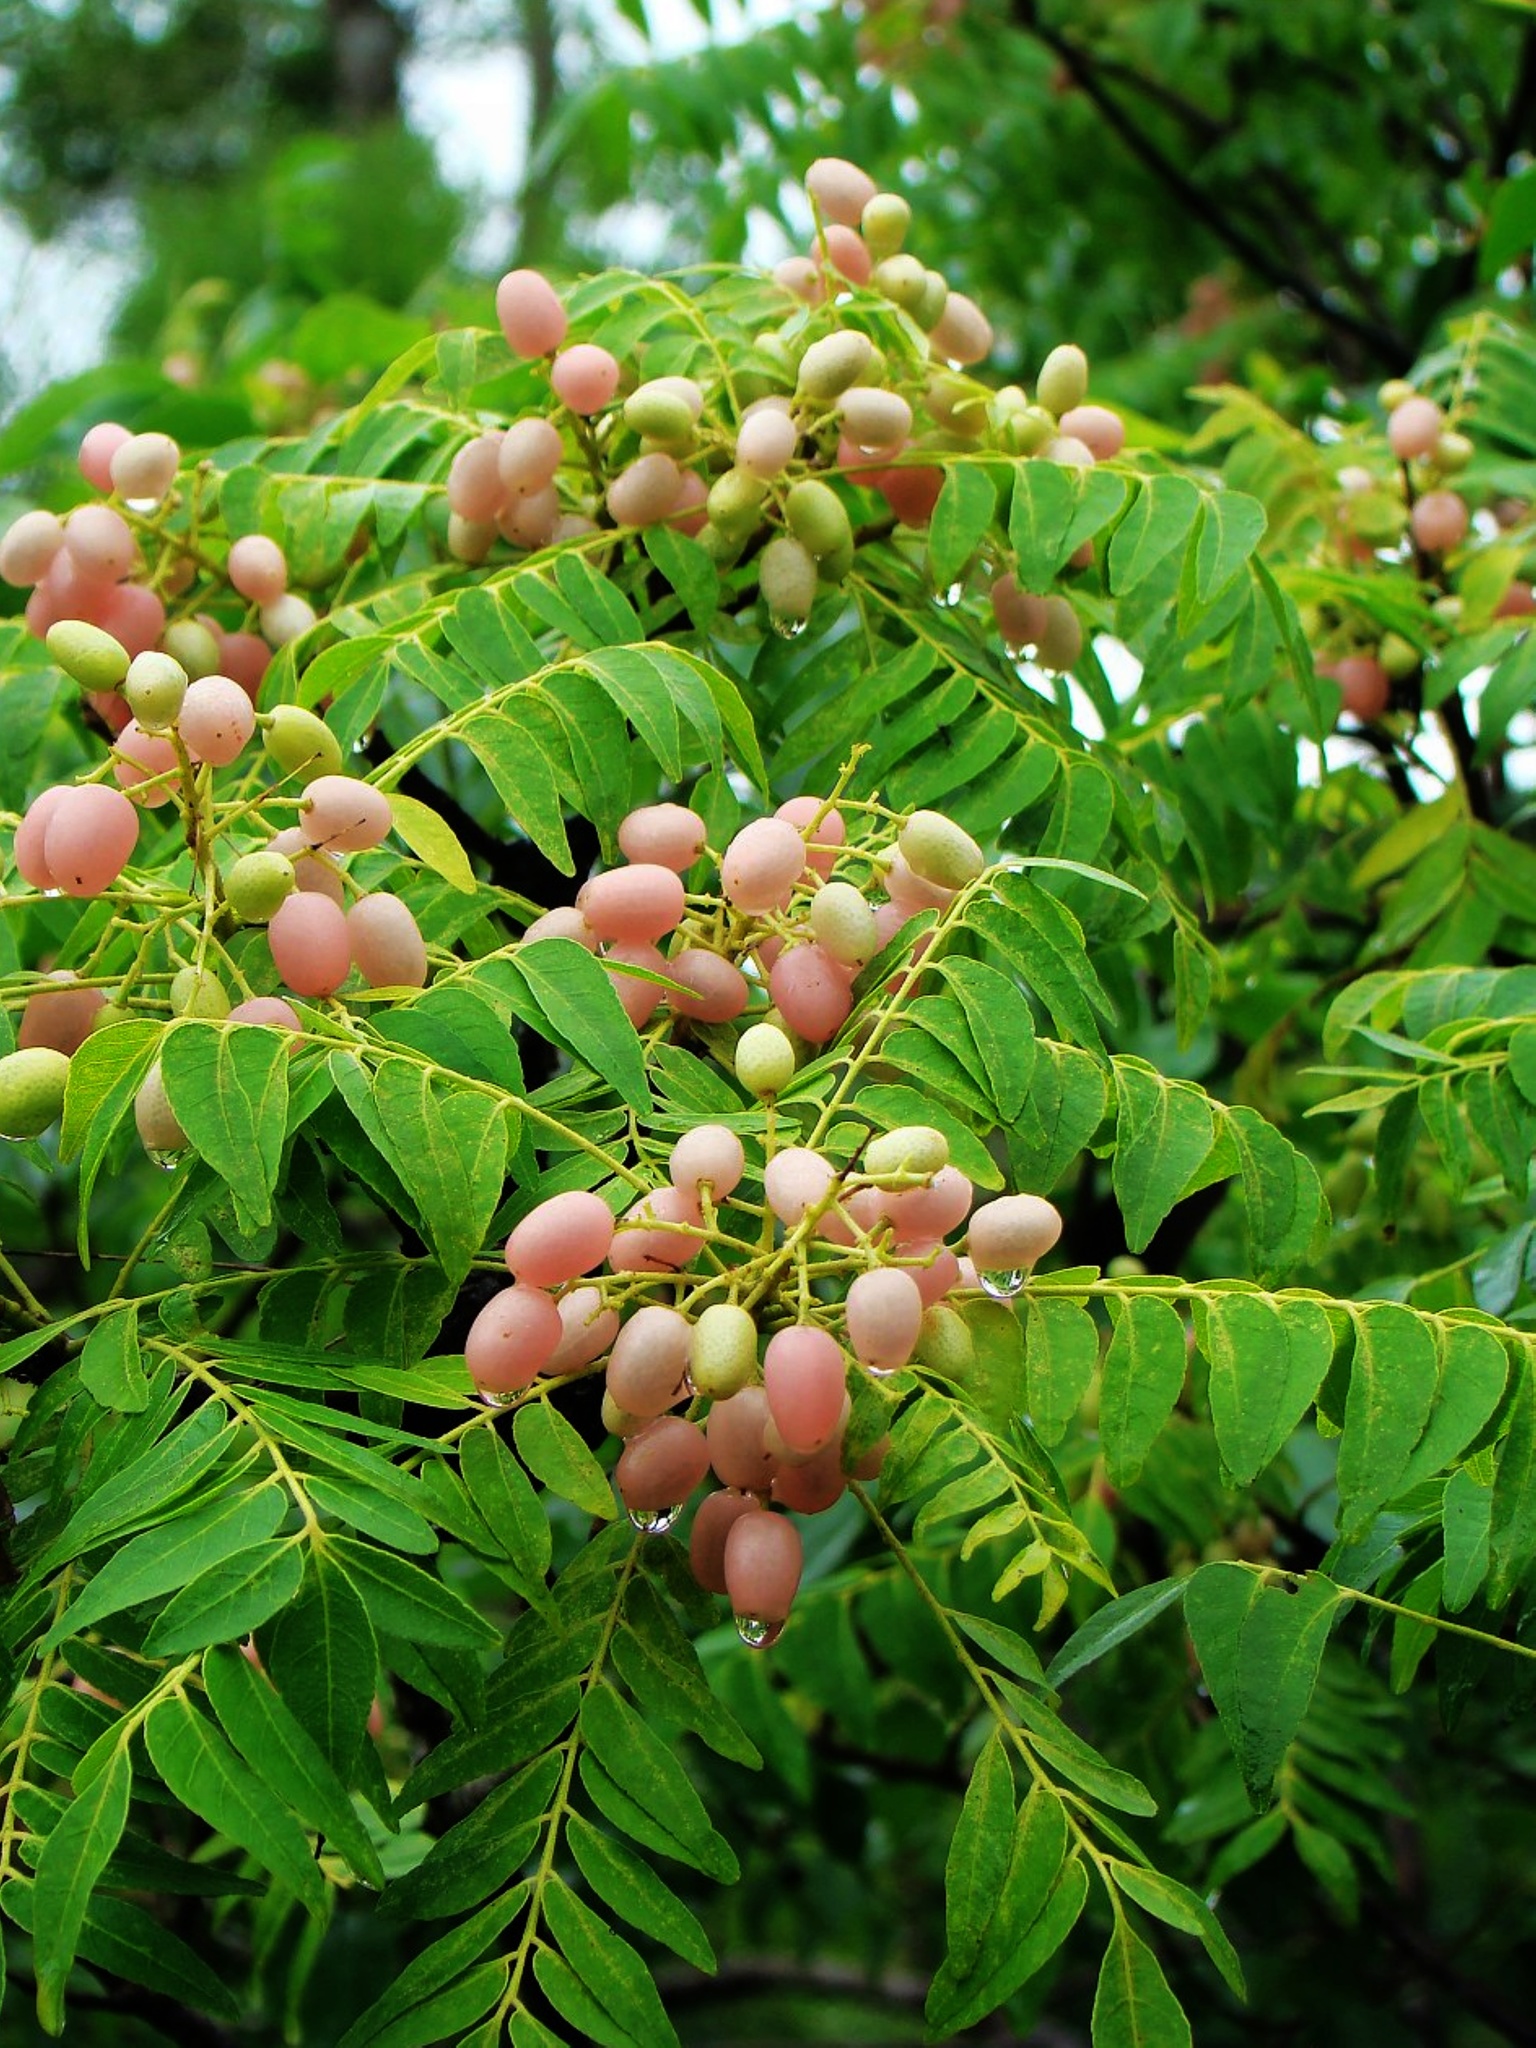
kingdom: Plantae
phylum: Tracheophyta
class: Magnoliopsida
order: Sapindales
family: Rutaceae
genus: Clausena
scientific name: Clausena excavata
